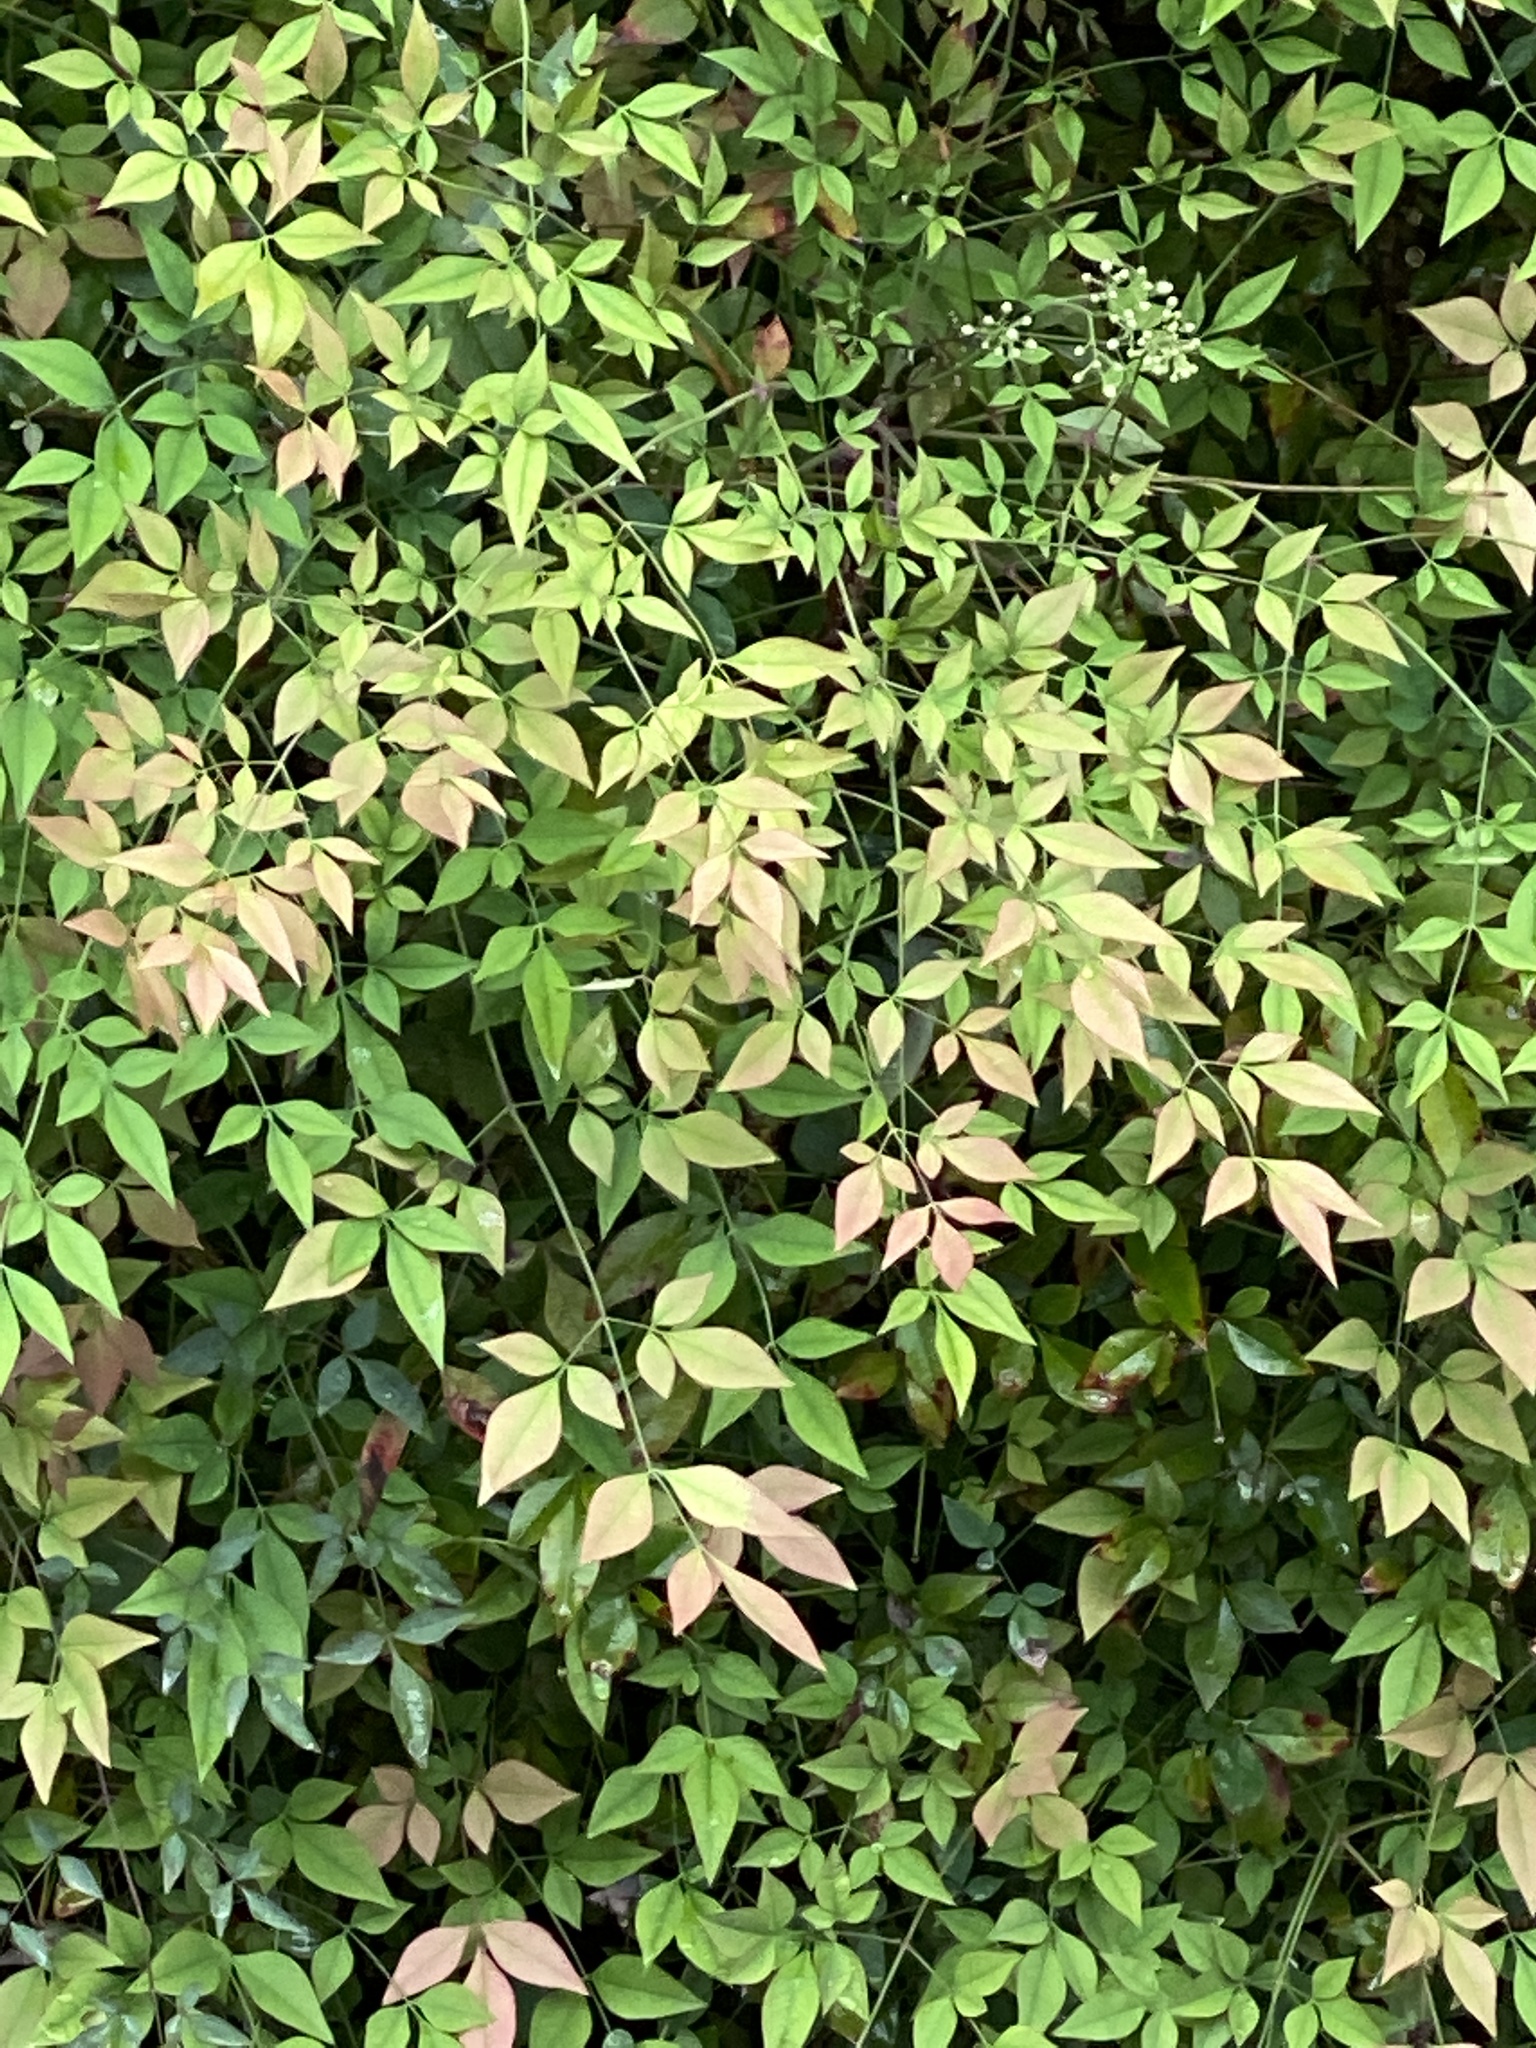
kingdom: Plantae
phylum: Tracheophyta
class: Magnoliopsida
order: Ranunculales
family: Berberidaceae
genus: Nandina
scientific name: Nandina domestica
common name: Sacred bamboo
